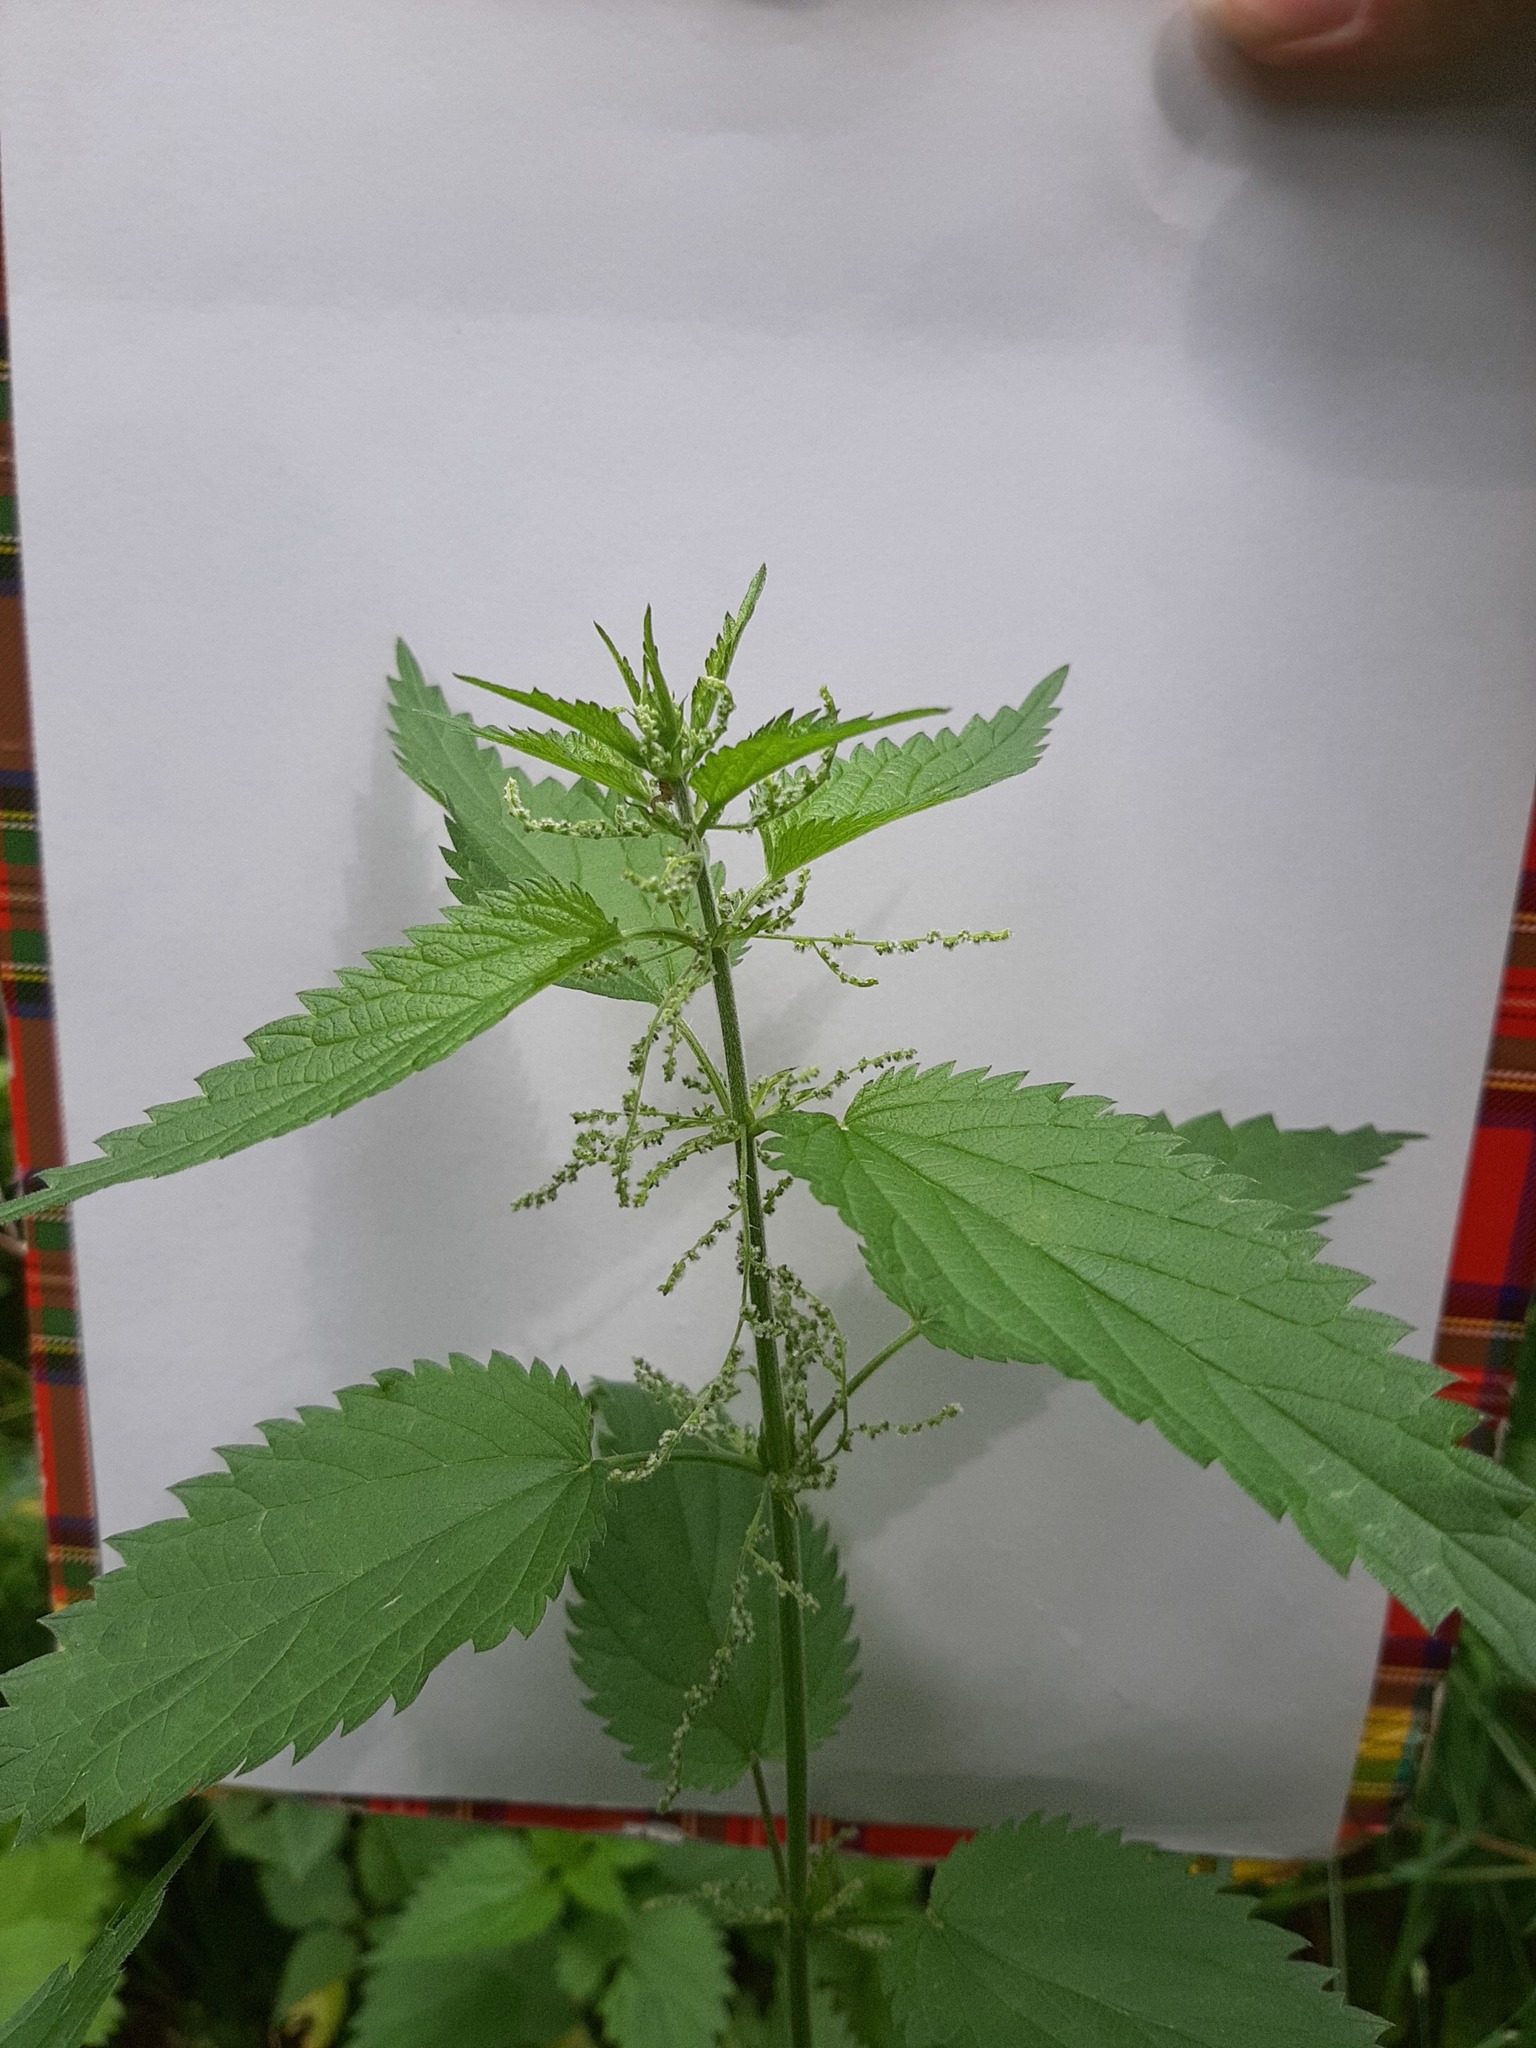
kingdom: Plantae
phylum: Tracheophyta
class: Magnoliopsida
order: Rosales
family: Urticaceae
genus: Urtica
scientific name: Urtica dioica
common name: Common nettle
